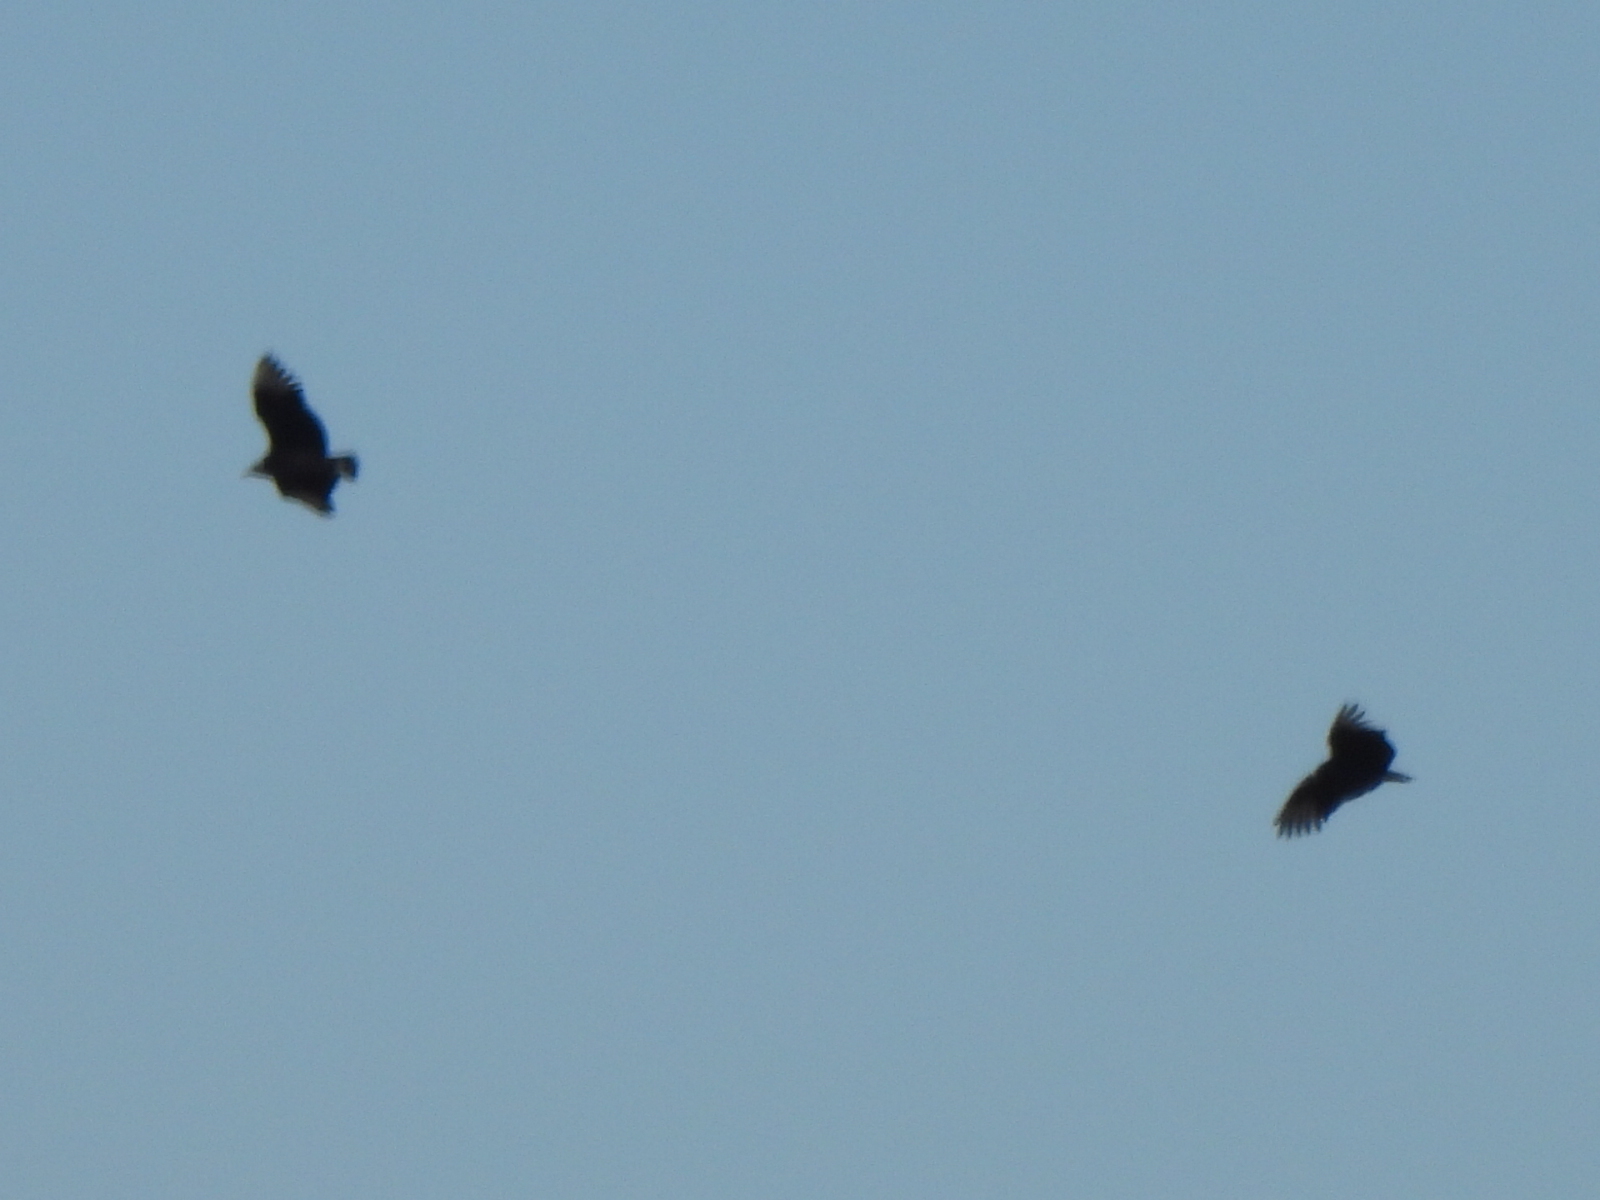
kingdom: Animalia
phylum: Chordata
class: Aves
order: Accipitriformes
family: Cathartidae
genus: Coragyps
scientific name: Coragyps atratus
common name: Black vulture
